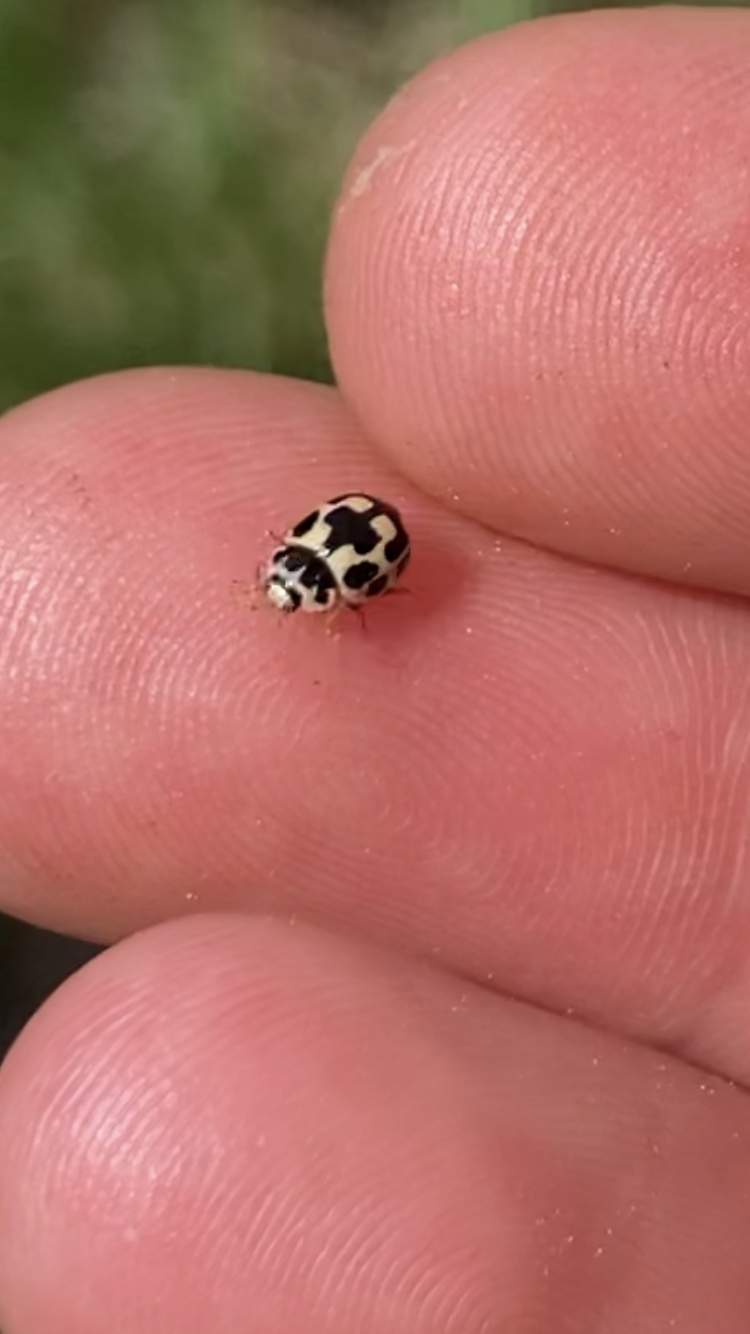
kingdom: Animalia
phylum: Arthropoda
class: Insecta
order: Coleoptera
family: Coccinellidae
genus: Propylaea
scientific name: Propylaea quatuordecimpunctata
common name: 14-spotted ladybird beetle
